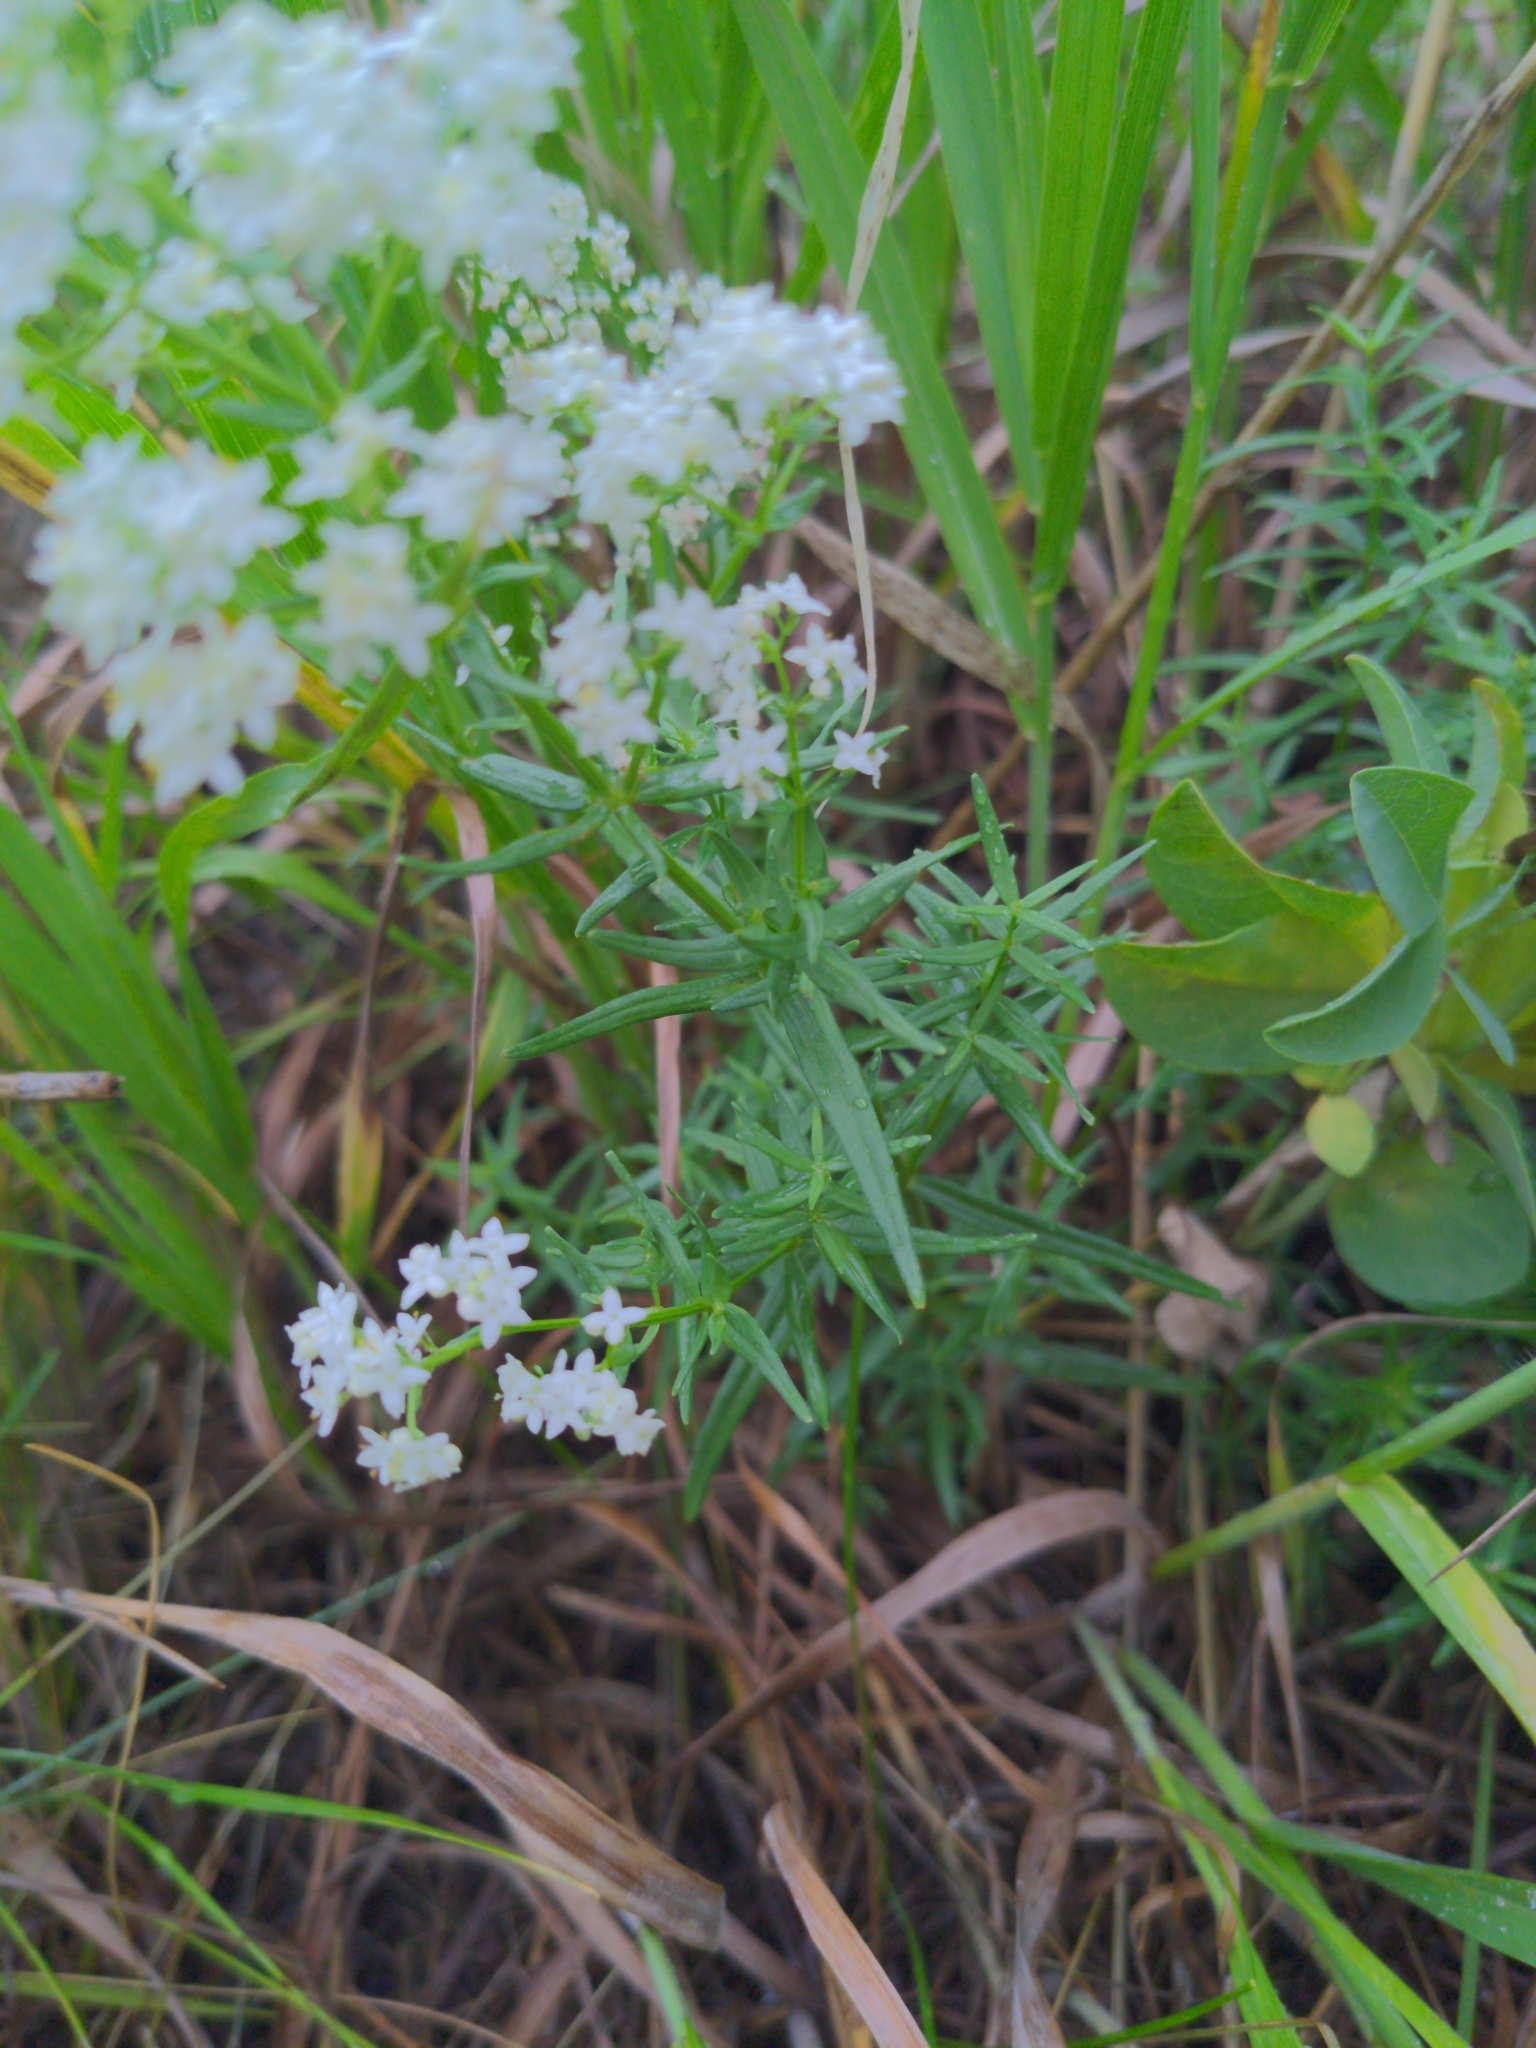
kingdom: Plantae
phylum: Tracheophyta
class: Magnoliopsida
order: Gentianales
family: Rubiaceae
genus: Galium
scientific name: Galium boreale
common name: Northern bedstraw
